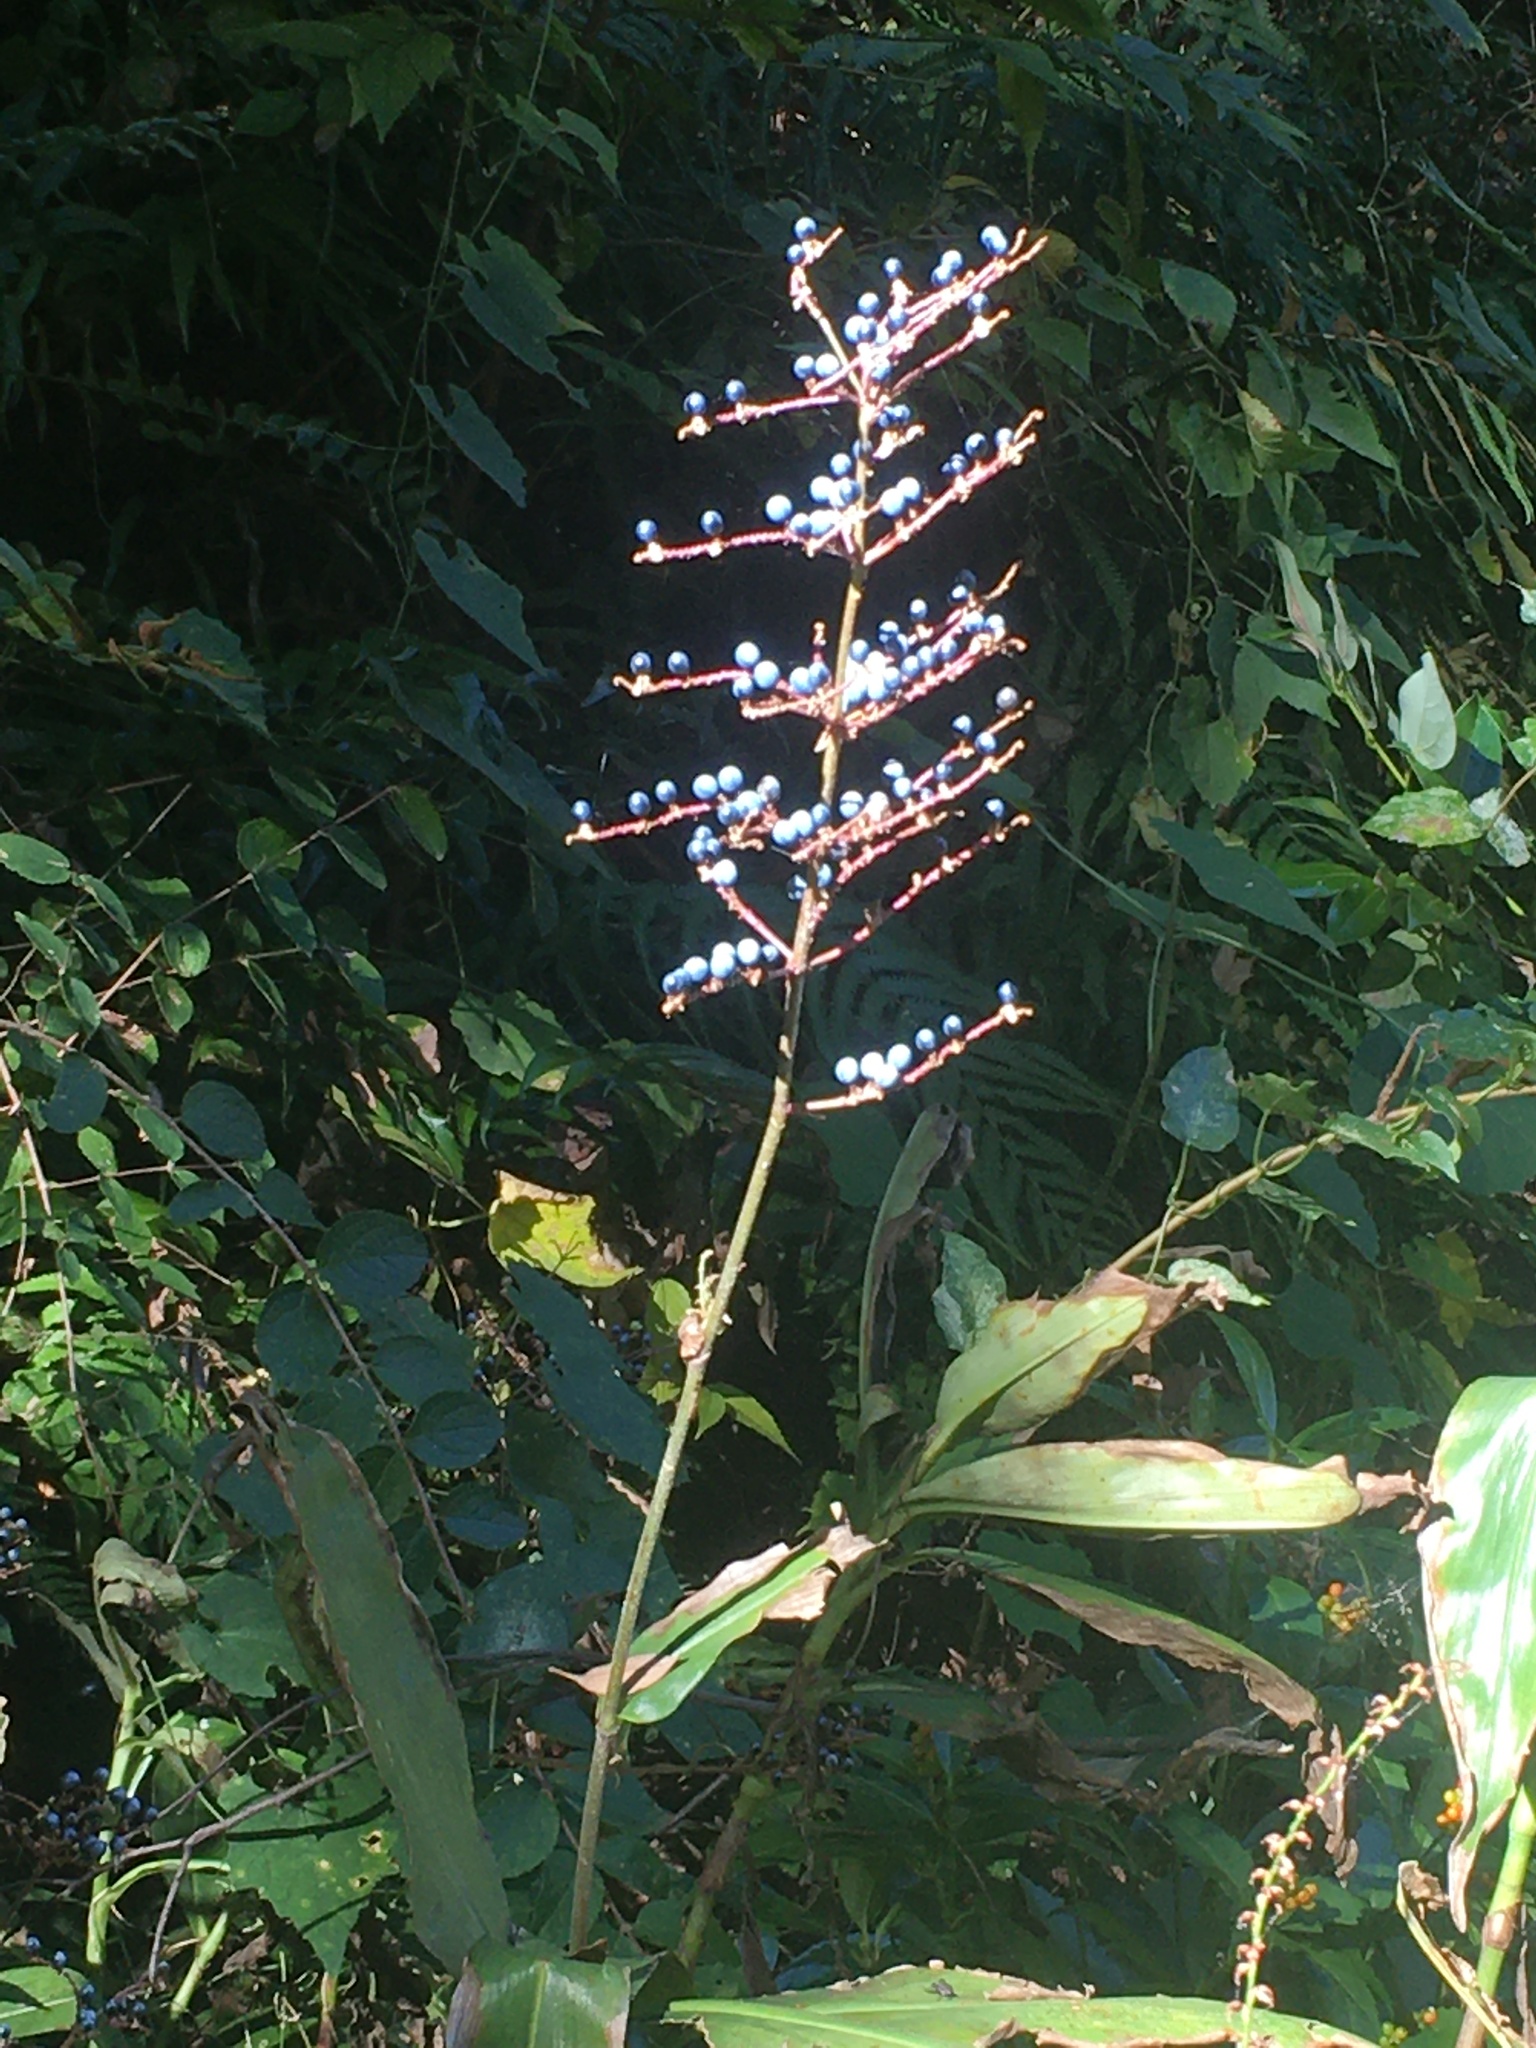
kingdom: Plantae
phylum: Tracheophyta
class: Liliopsida
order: Commelinales
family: Commelinaceae
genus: Pollia
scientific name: Pollia japonica
